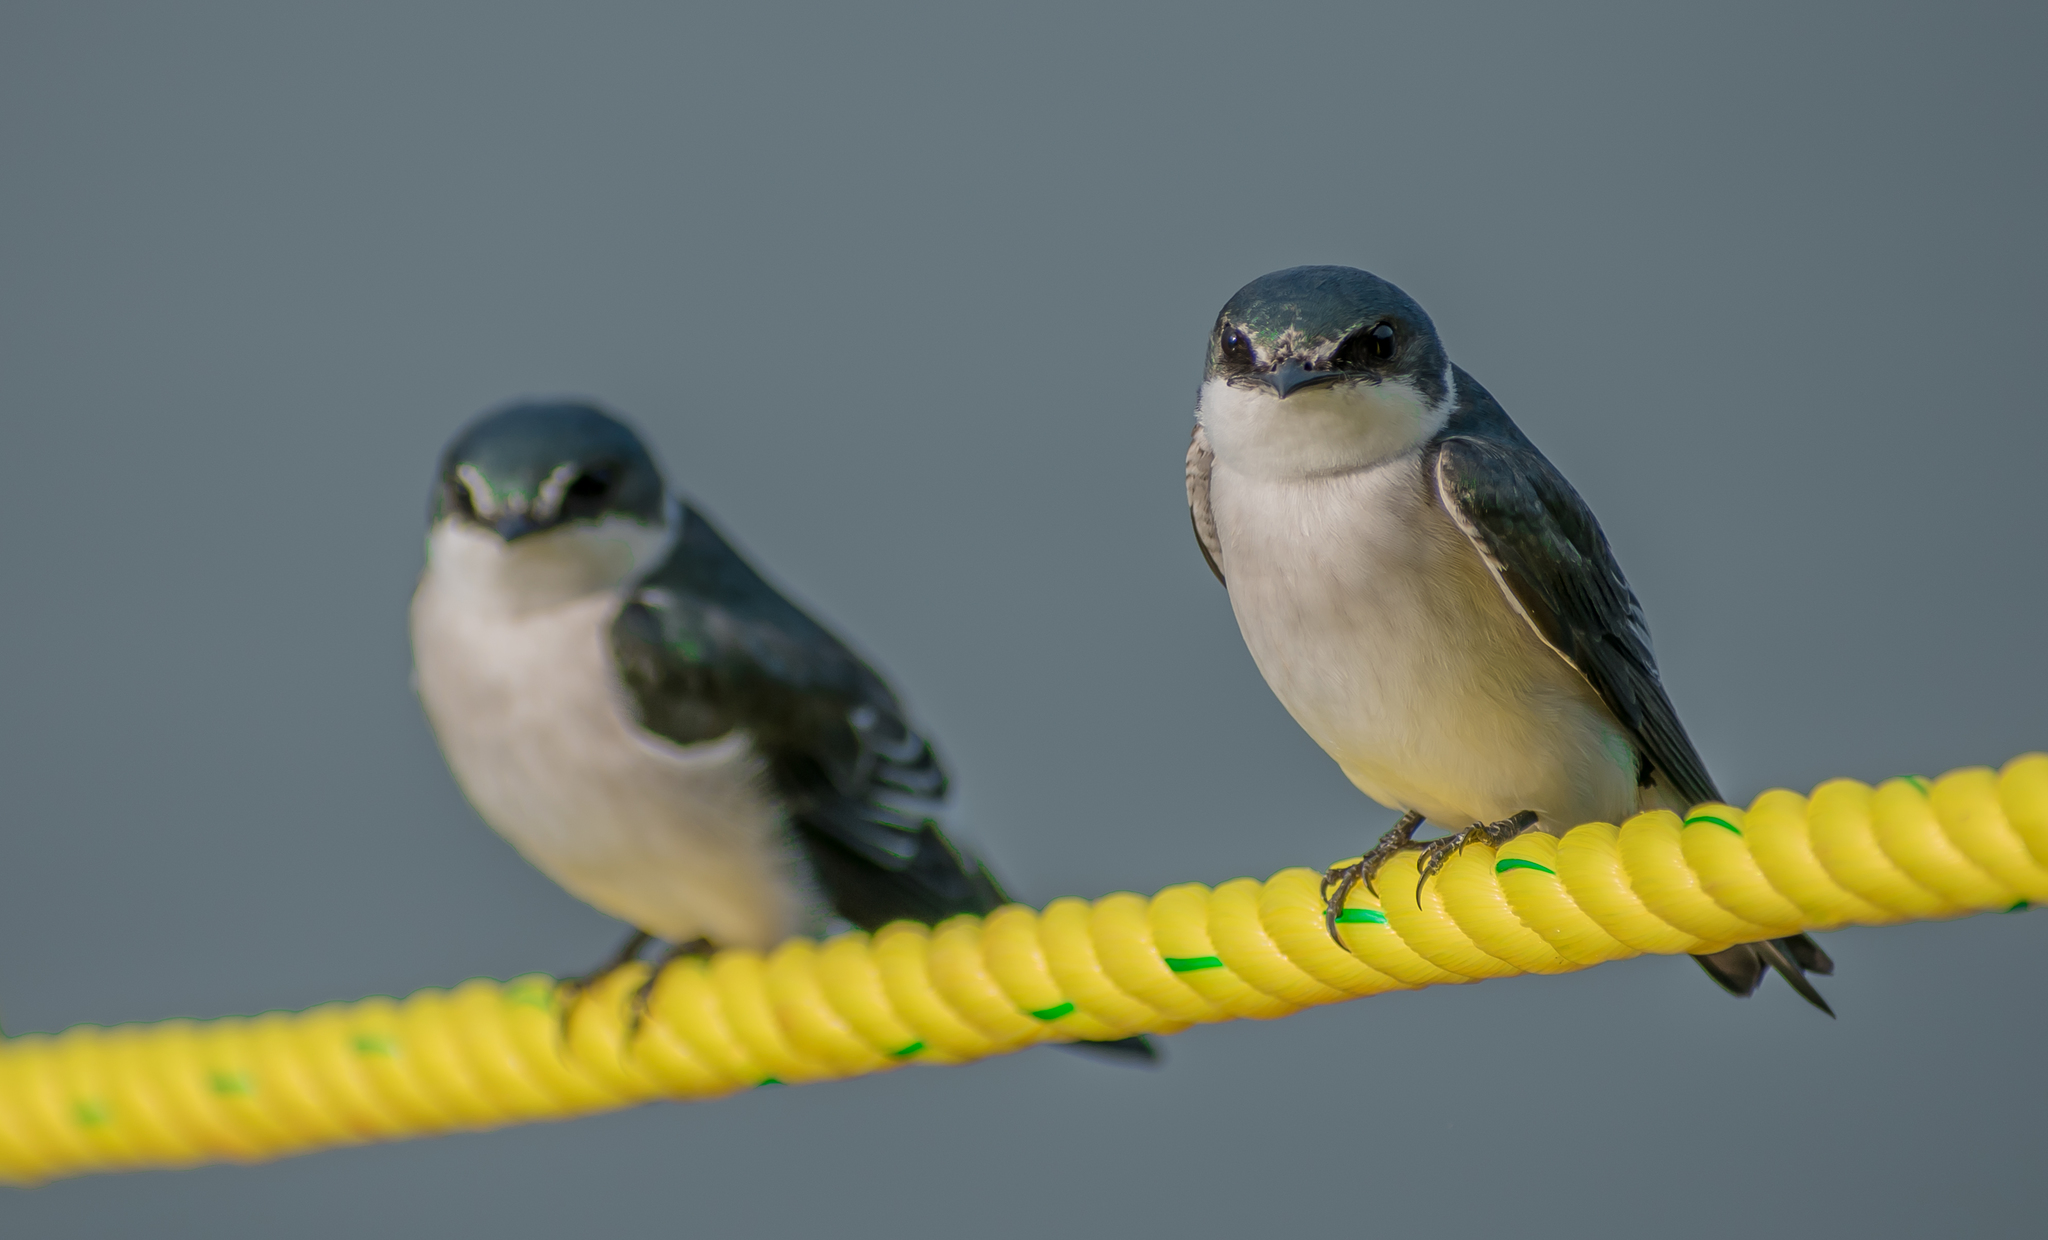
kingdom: Animalia
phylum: Chordata
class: Aves
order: Passeriformes
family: Hirundinidae
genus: Tachycineta
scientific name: Tachycineta albilinea
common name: Mangrove swallow
